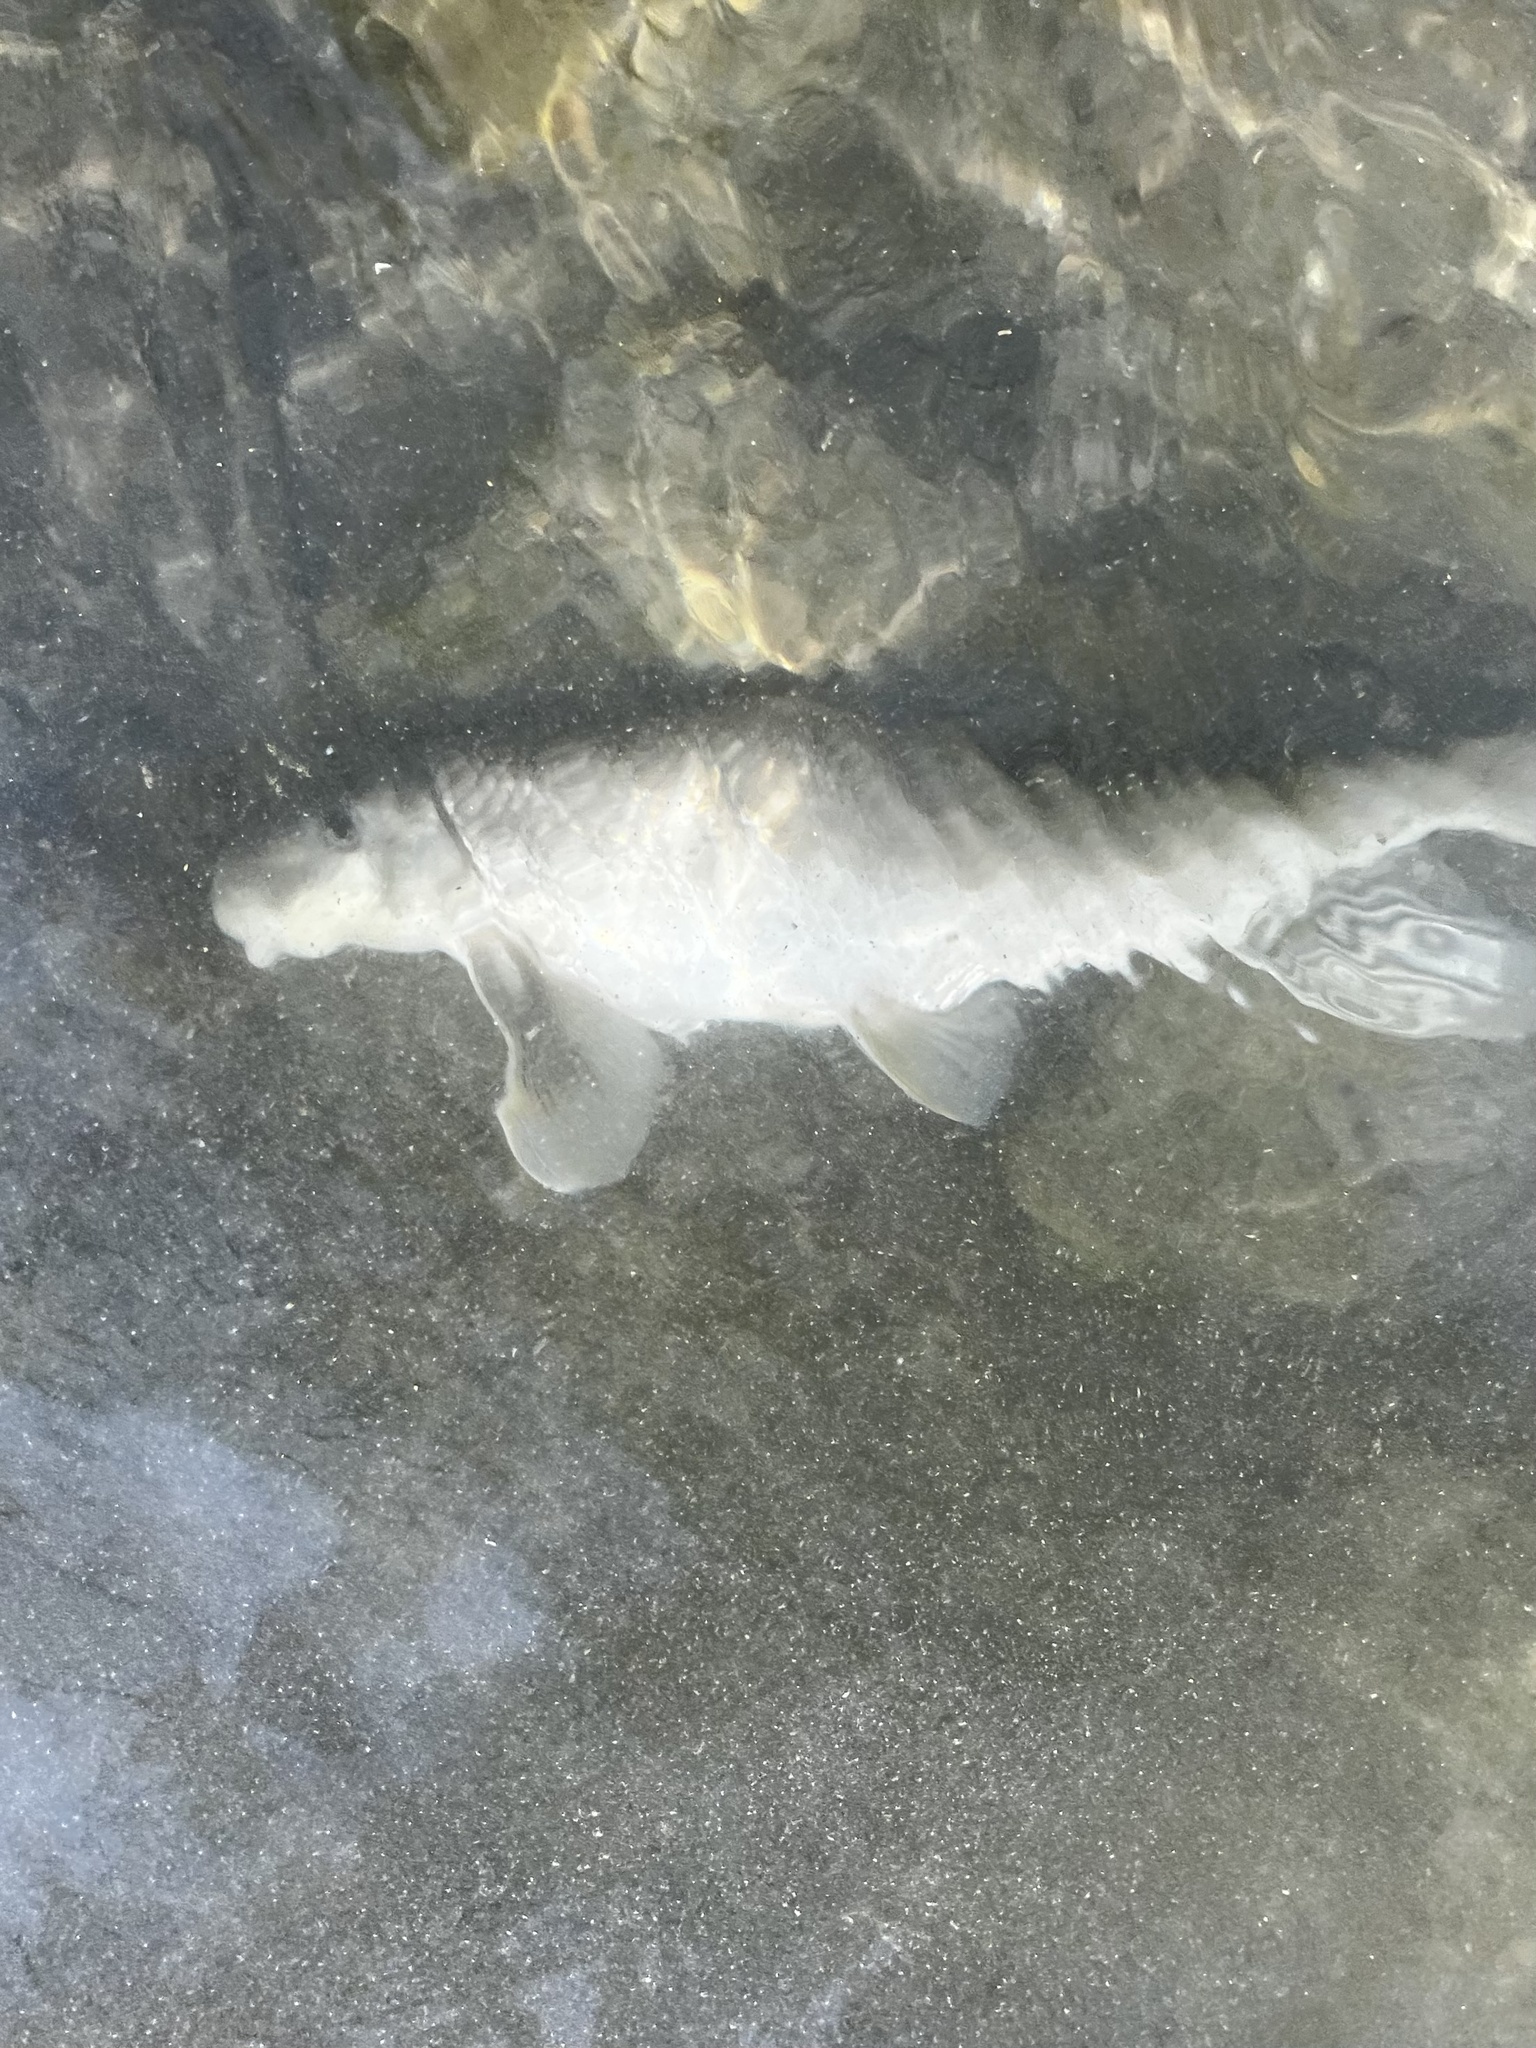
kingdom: Animalia
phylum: Chordata
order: Cypriniformes
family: Catostomidae
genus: Moxostoma
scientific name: Moxostoma congestum
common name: Gray redhorse
